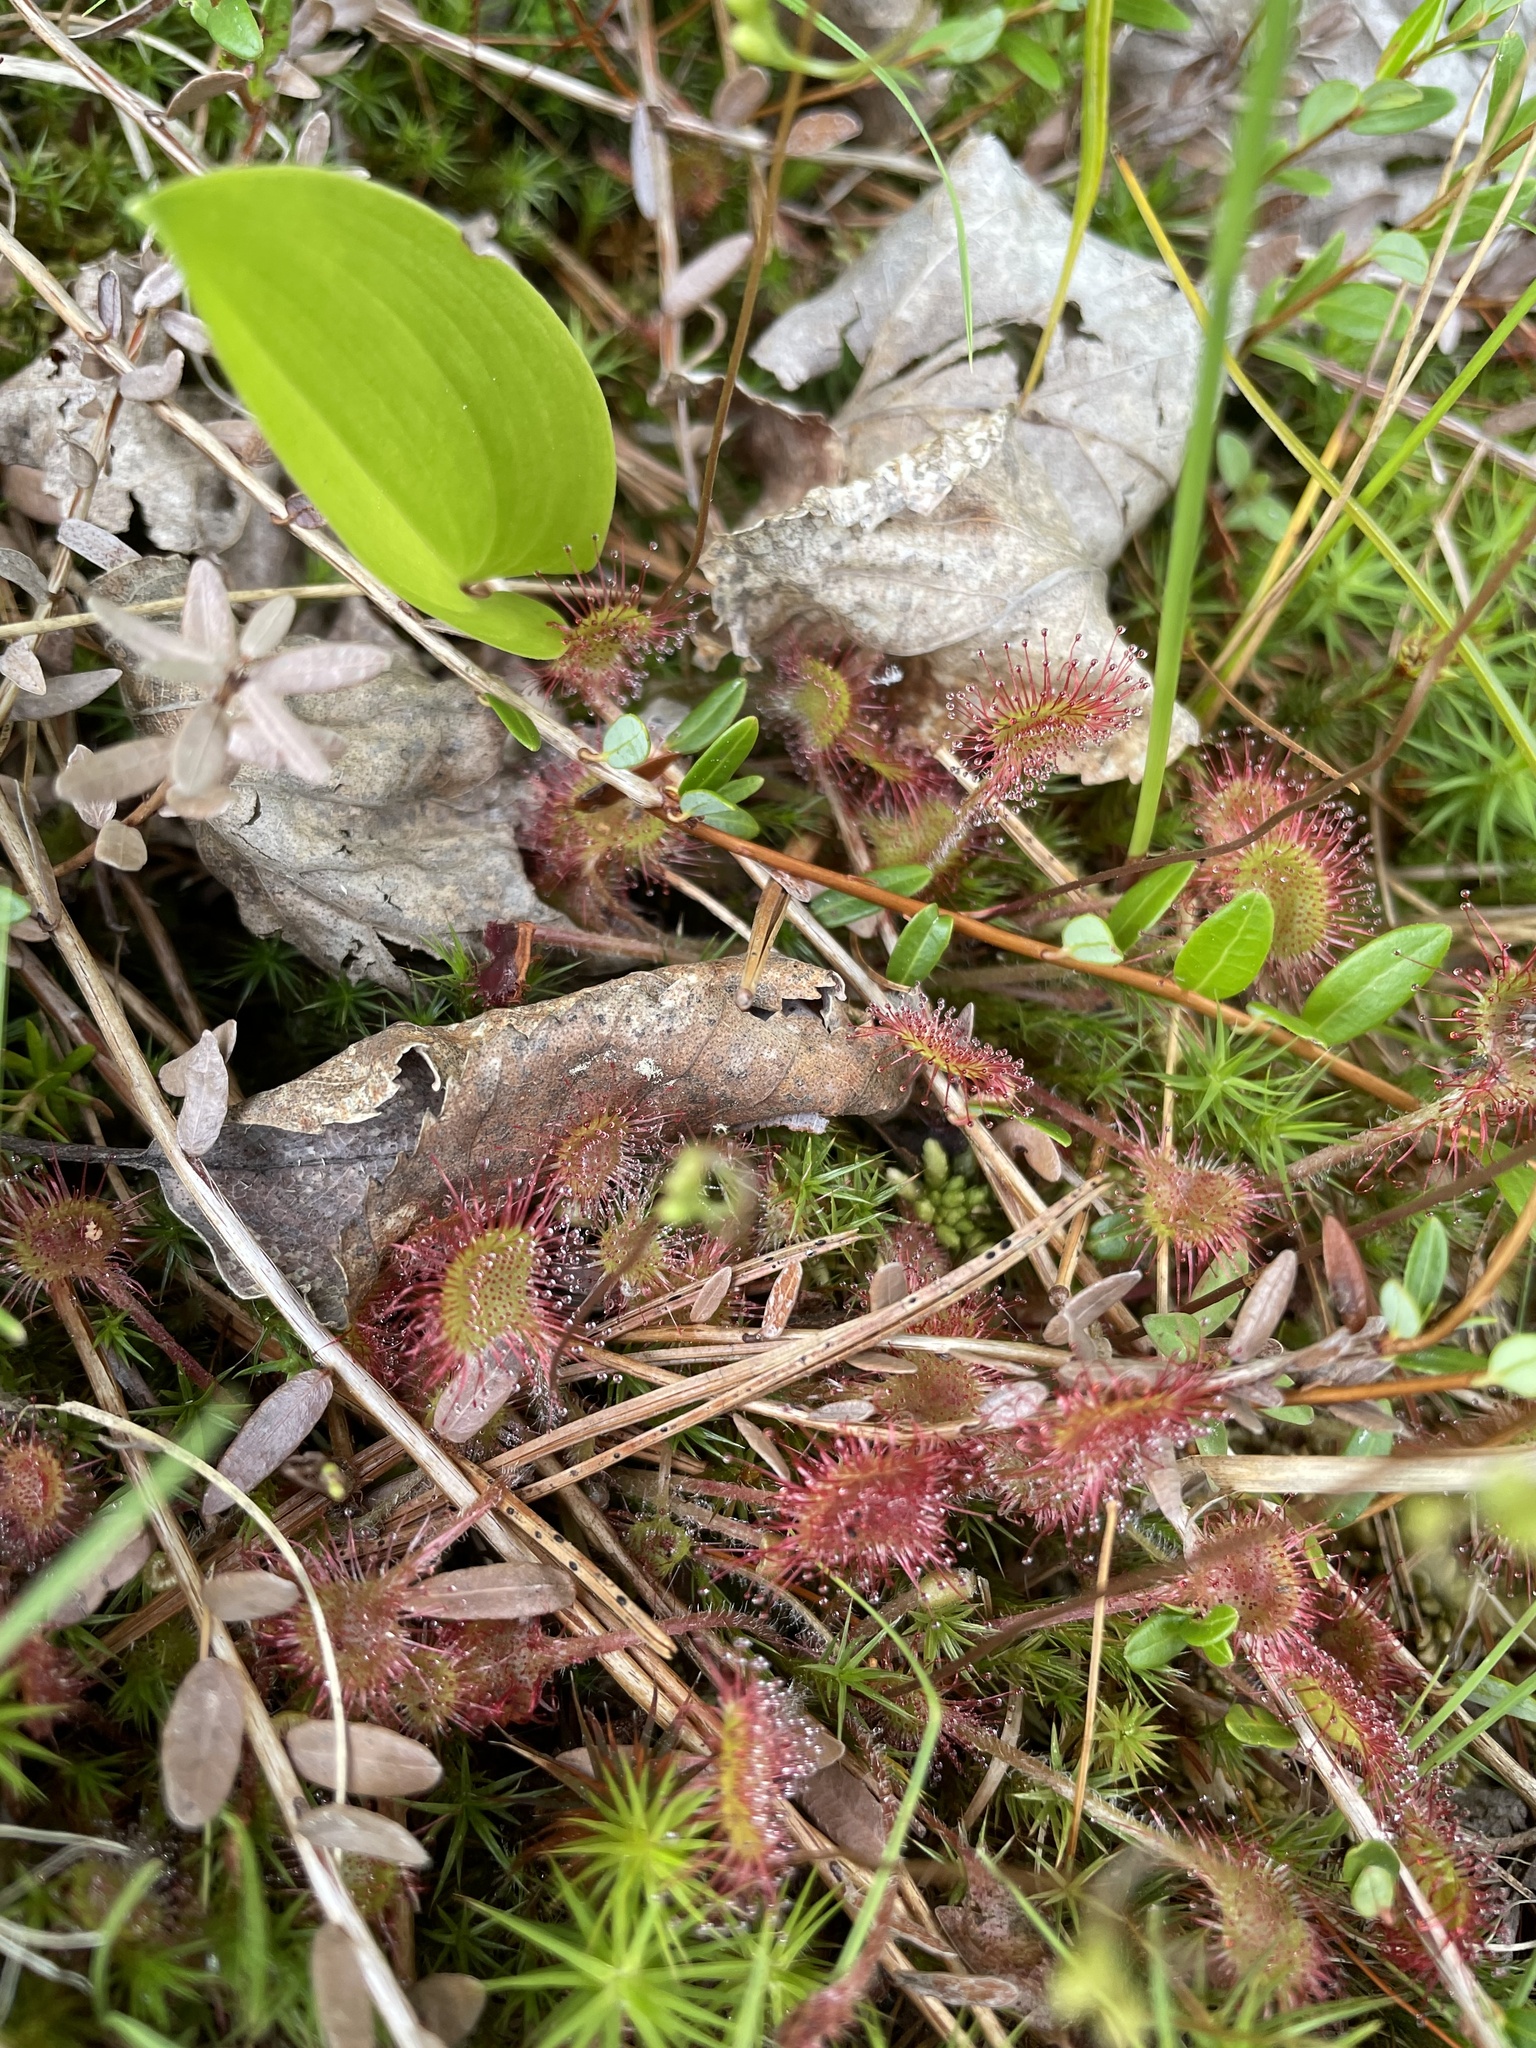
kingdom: Plantae
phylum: Tracheophyta
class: Magnoliopsida
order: Caryophyllales
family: Droseraceae
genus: Drosera
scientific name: Drosera rotundifolia
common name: Round-leaved sundew
